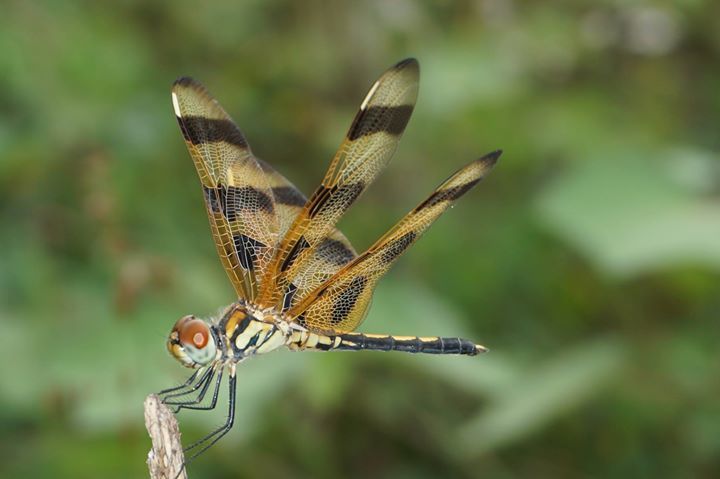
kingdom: Animalia
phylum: Arthropoda
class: Insecta
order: Odonata
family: Libellulidae
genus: Celithemis
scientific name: Celithemis eponina
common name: Halloween pennant
